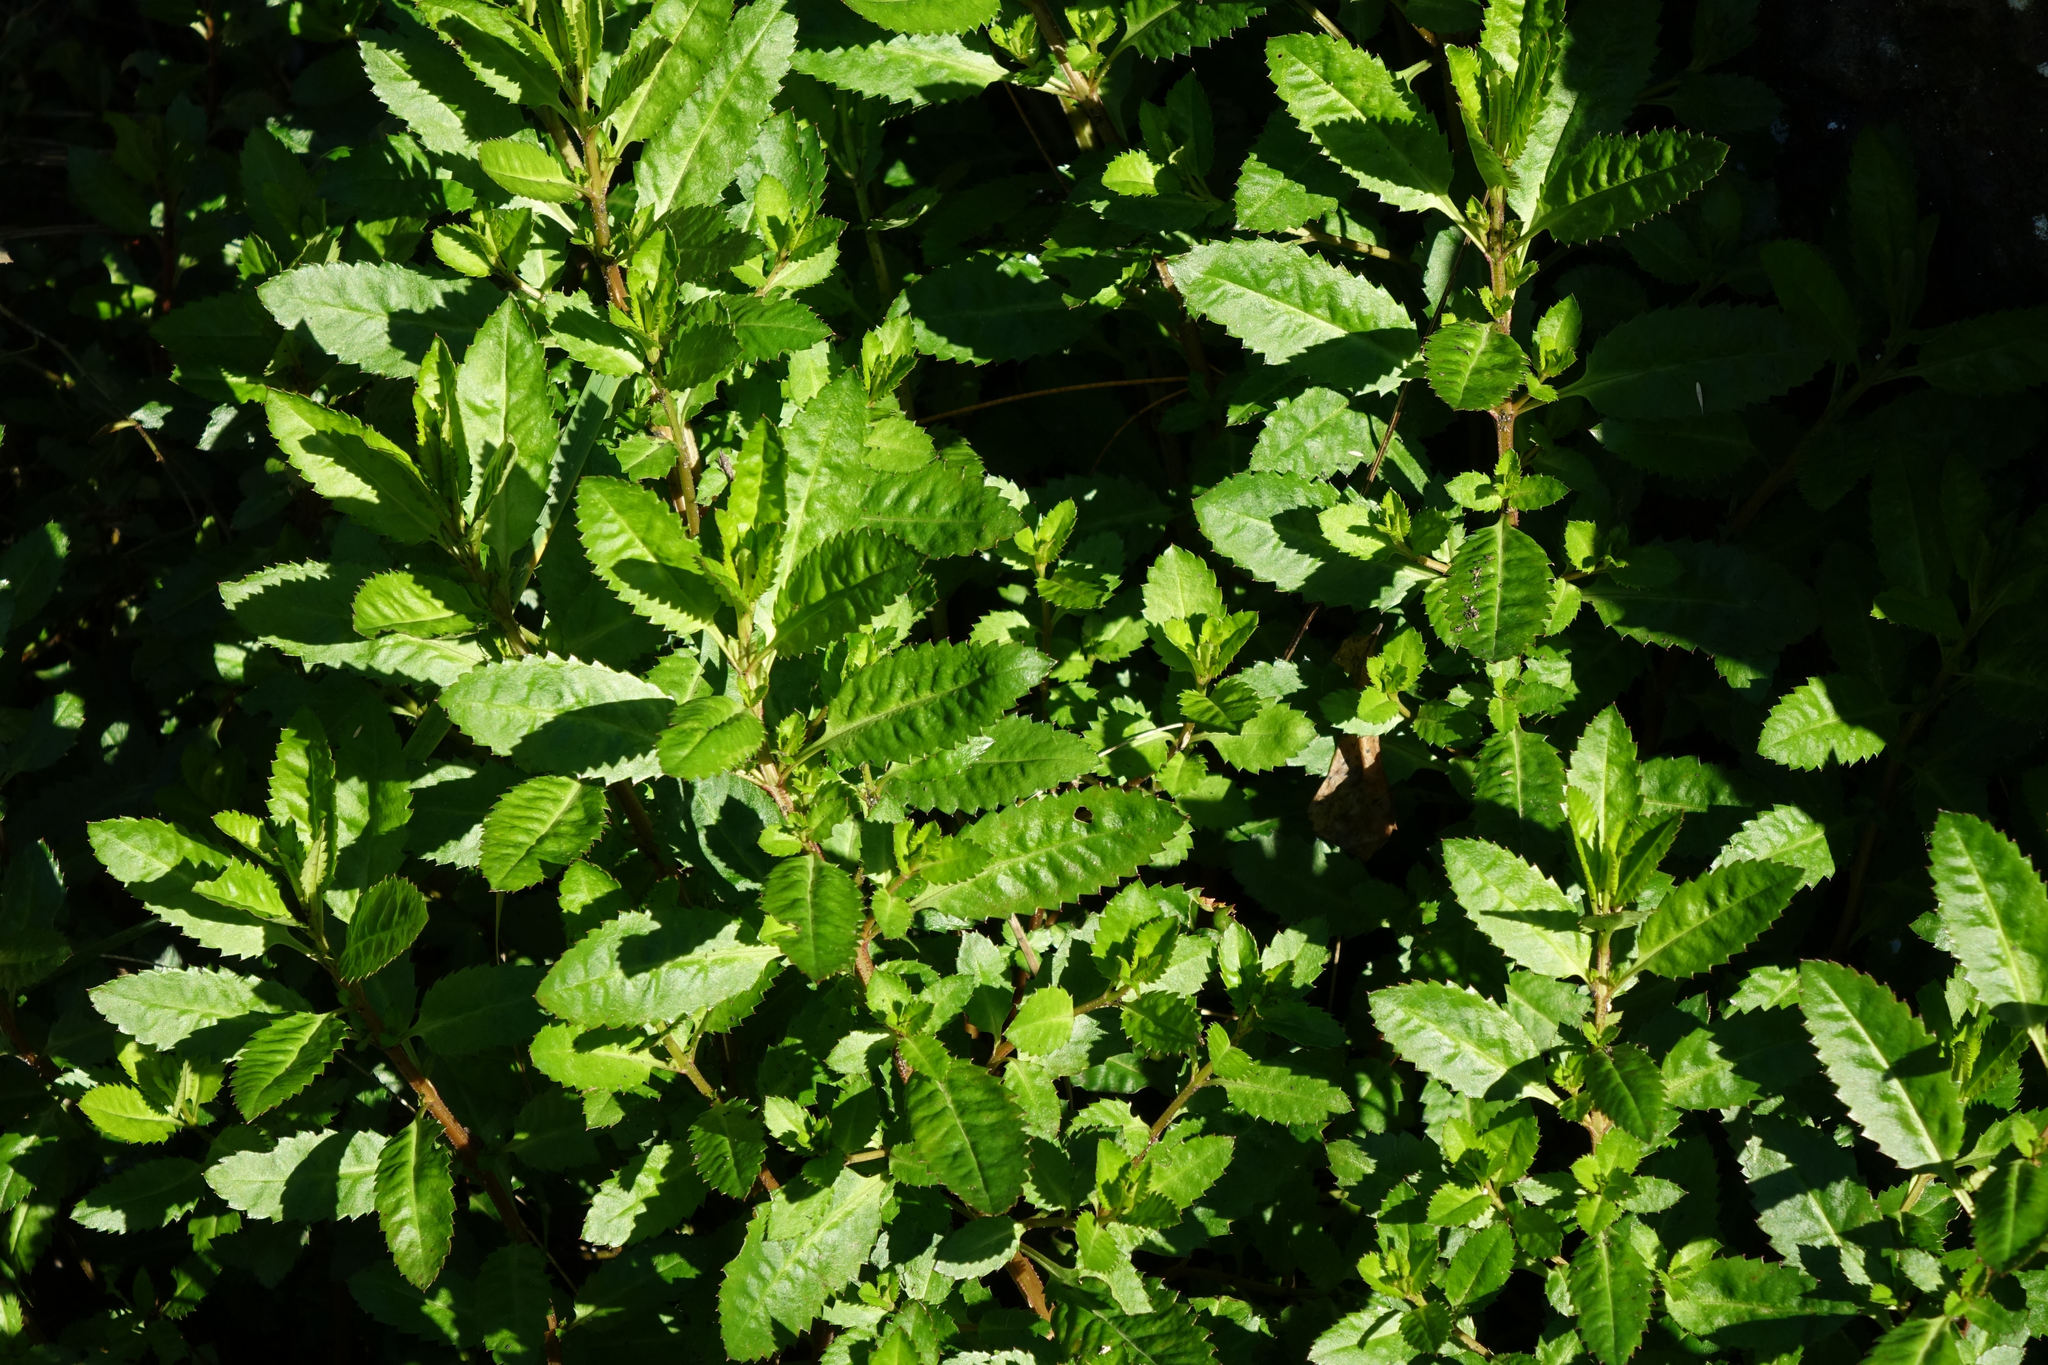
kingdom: Plantae
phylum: Tracheophyta
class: Magnoliopsida
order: Saxifragales
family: Haloragaceae
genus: Haloragis
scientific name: Haloragis erecta
